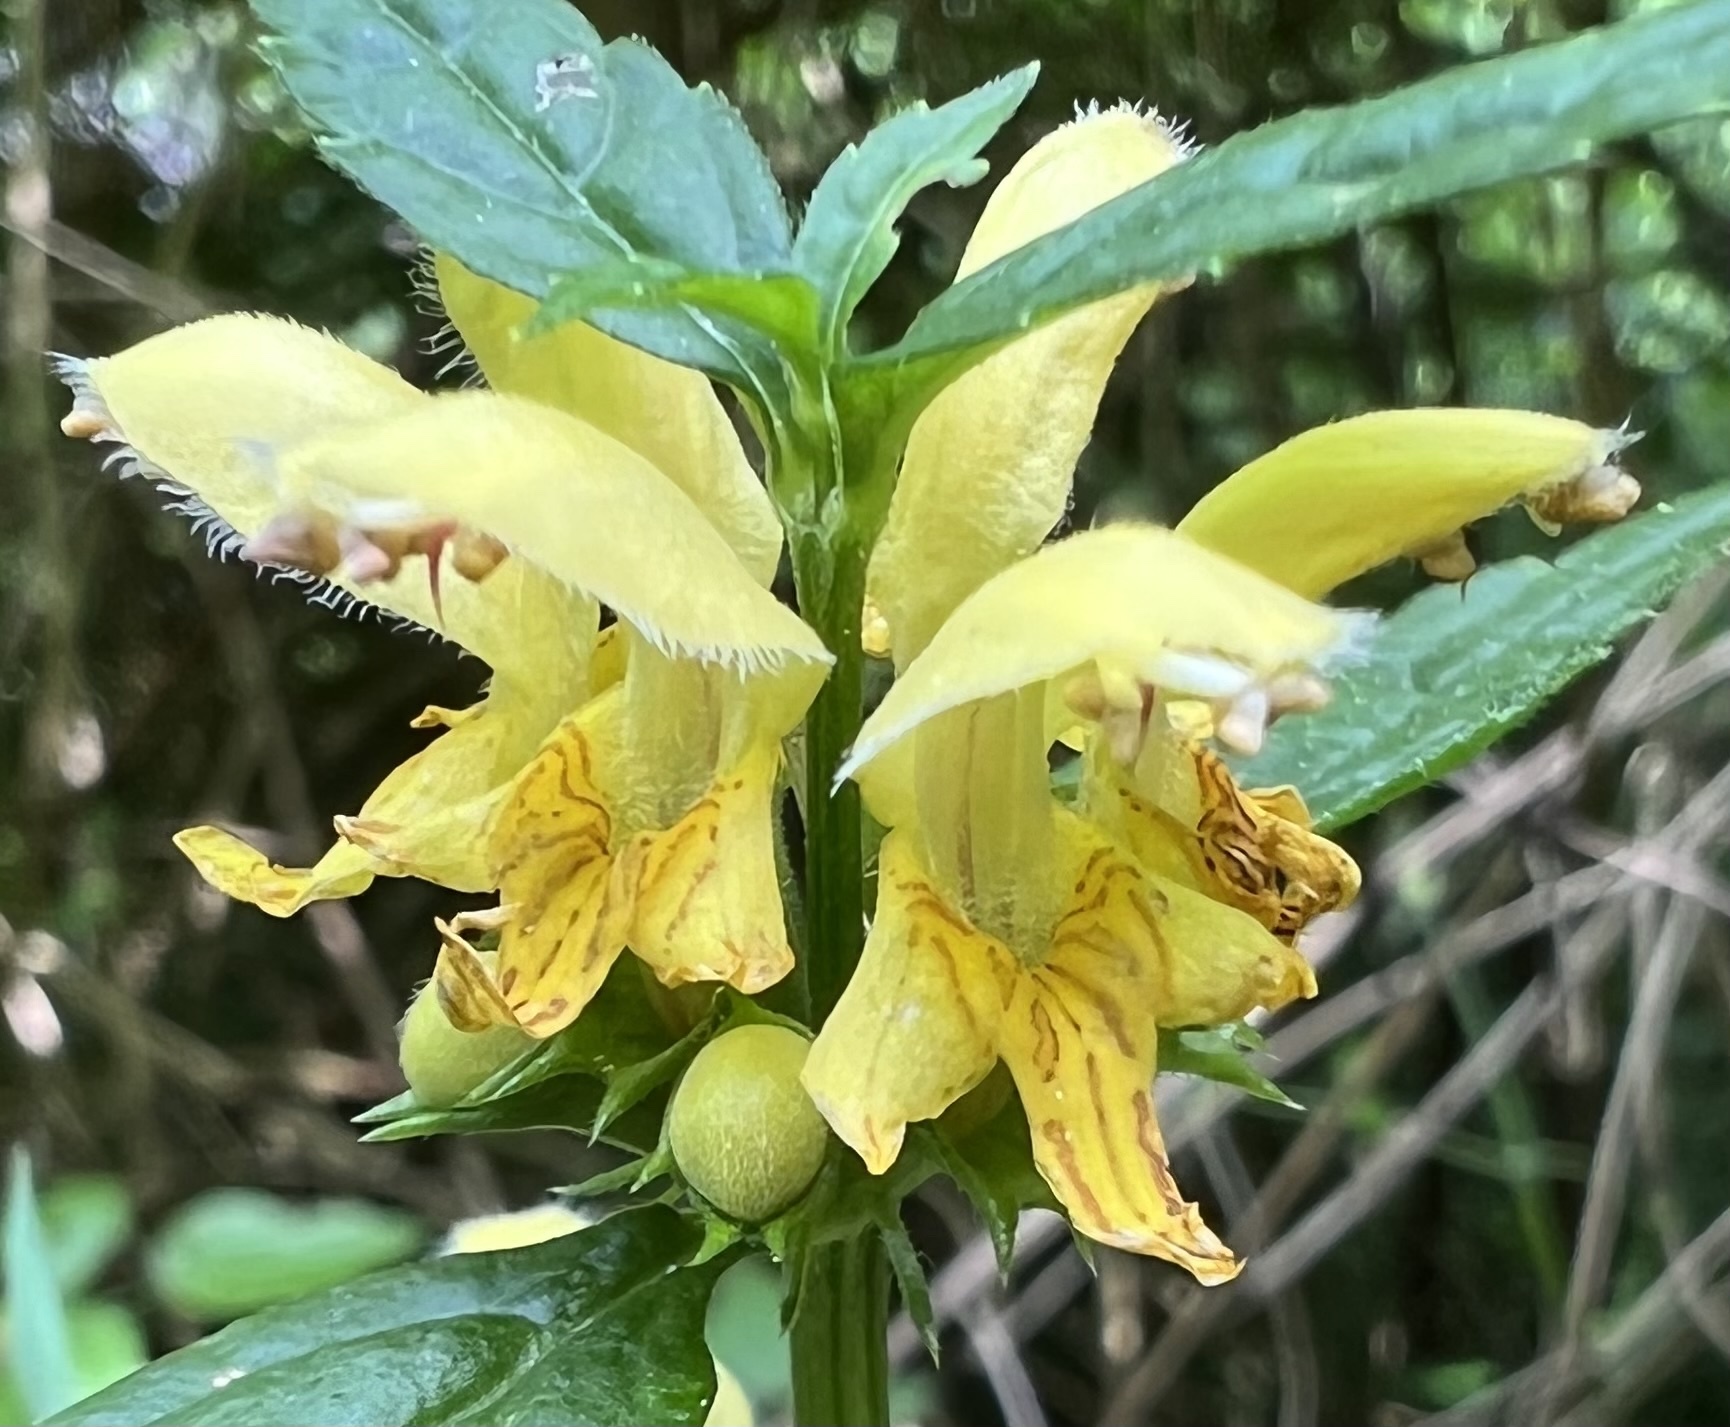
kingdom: Plantae
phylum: Tracheophyta
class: Magnoliopsida
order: Lamiales
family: Lamiaceae
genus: Lamium
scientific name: Lamium galeobdolon
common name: Yellow archangel
